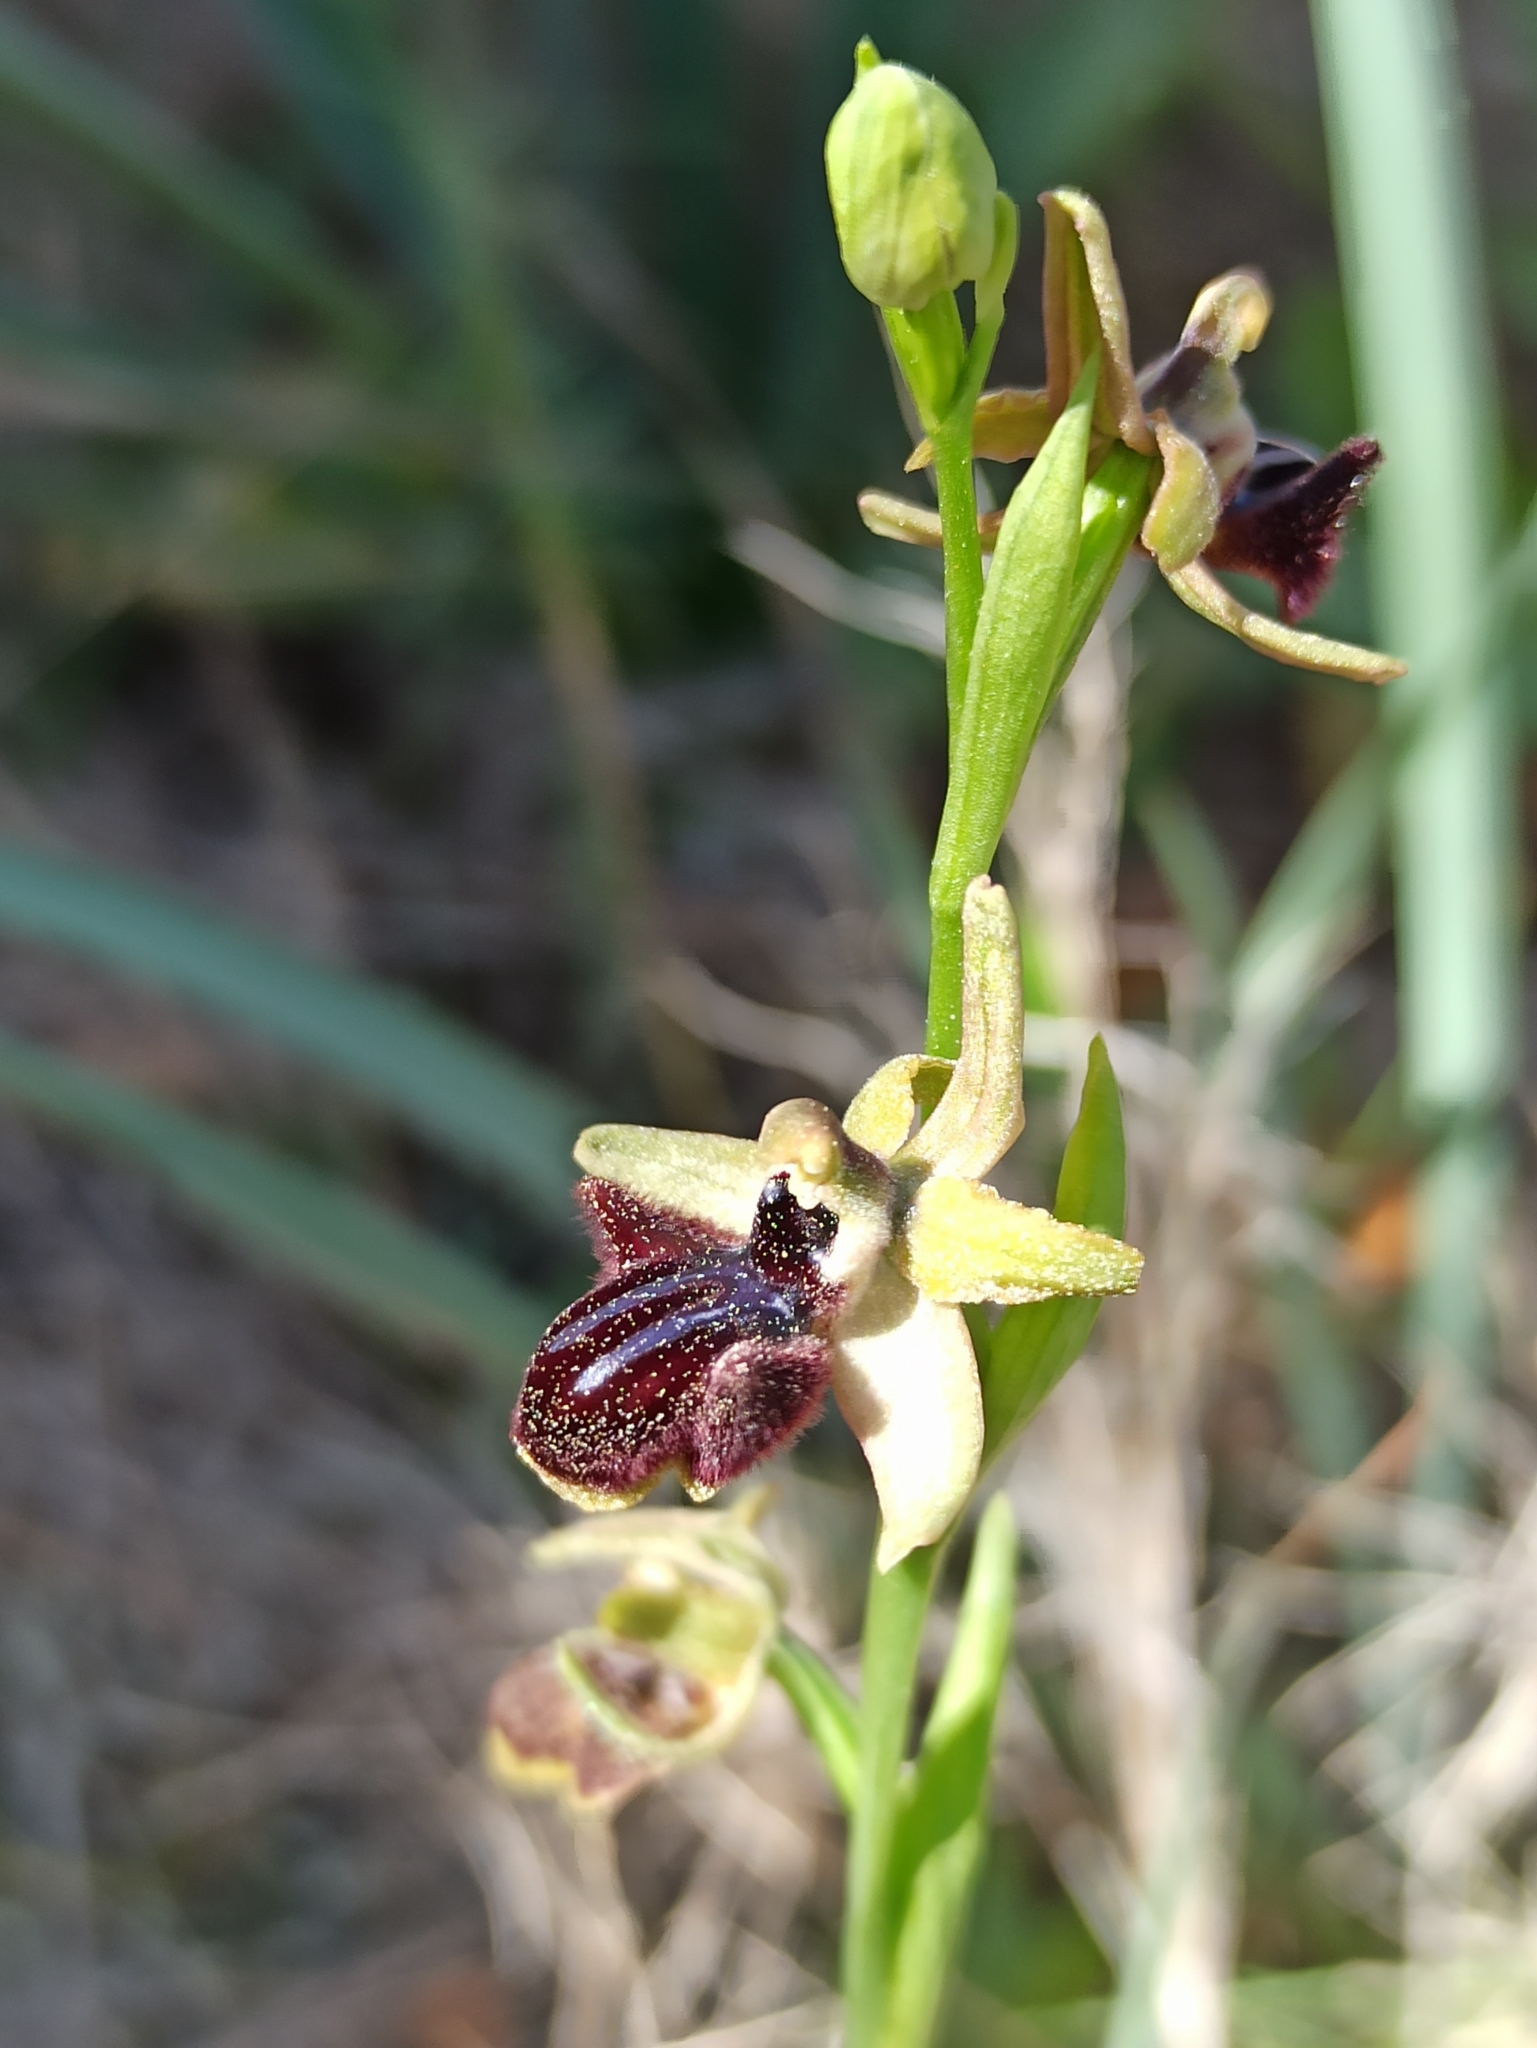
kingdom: Plantae
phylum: Tracheophyta
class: Liliopsida
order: Asparagales
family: Orchidaceae
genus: Ophrys
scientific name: Ophrys sphegodes
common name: Early spider-orchid
